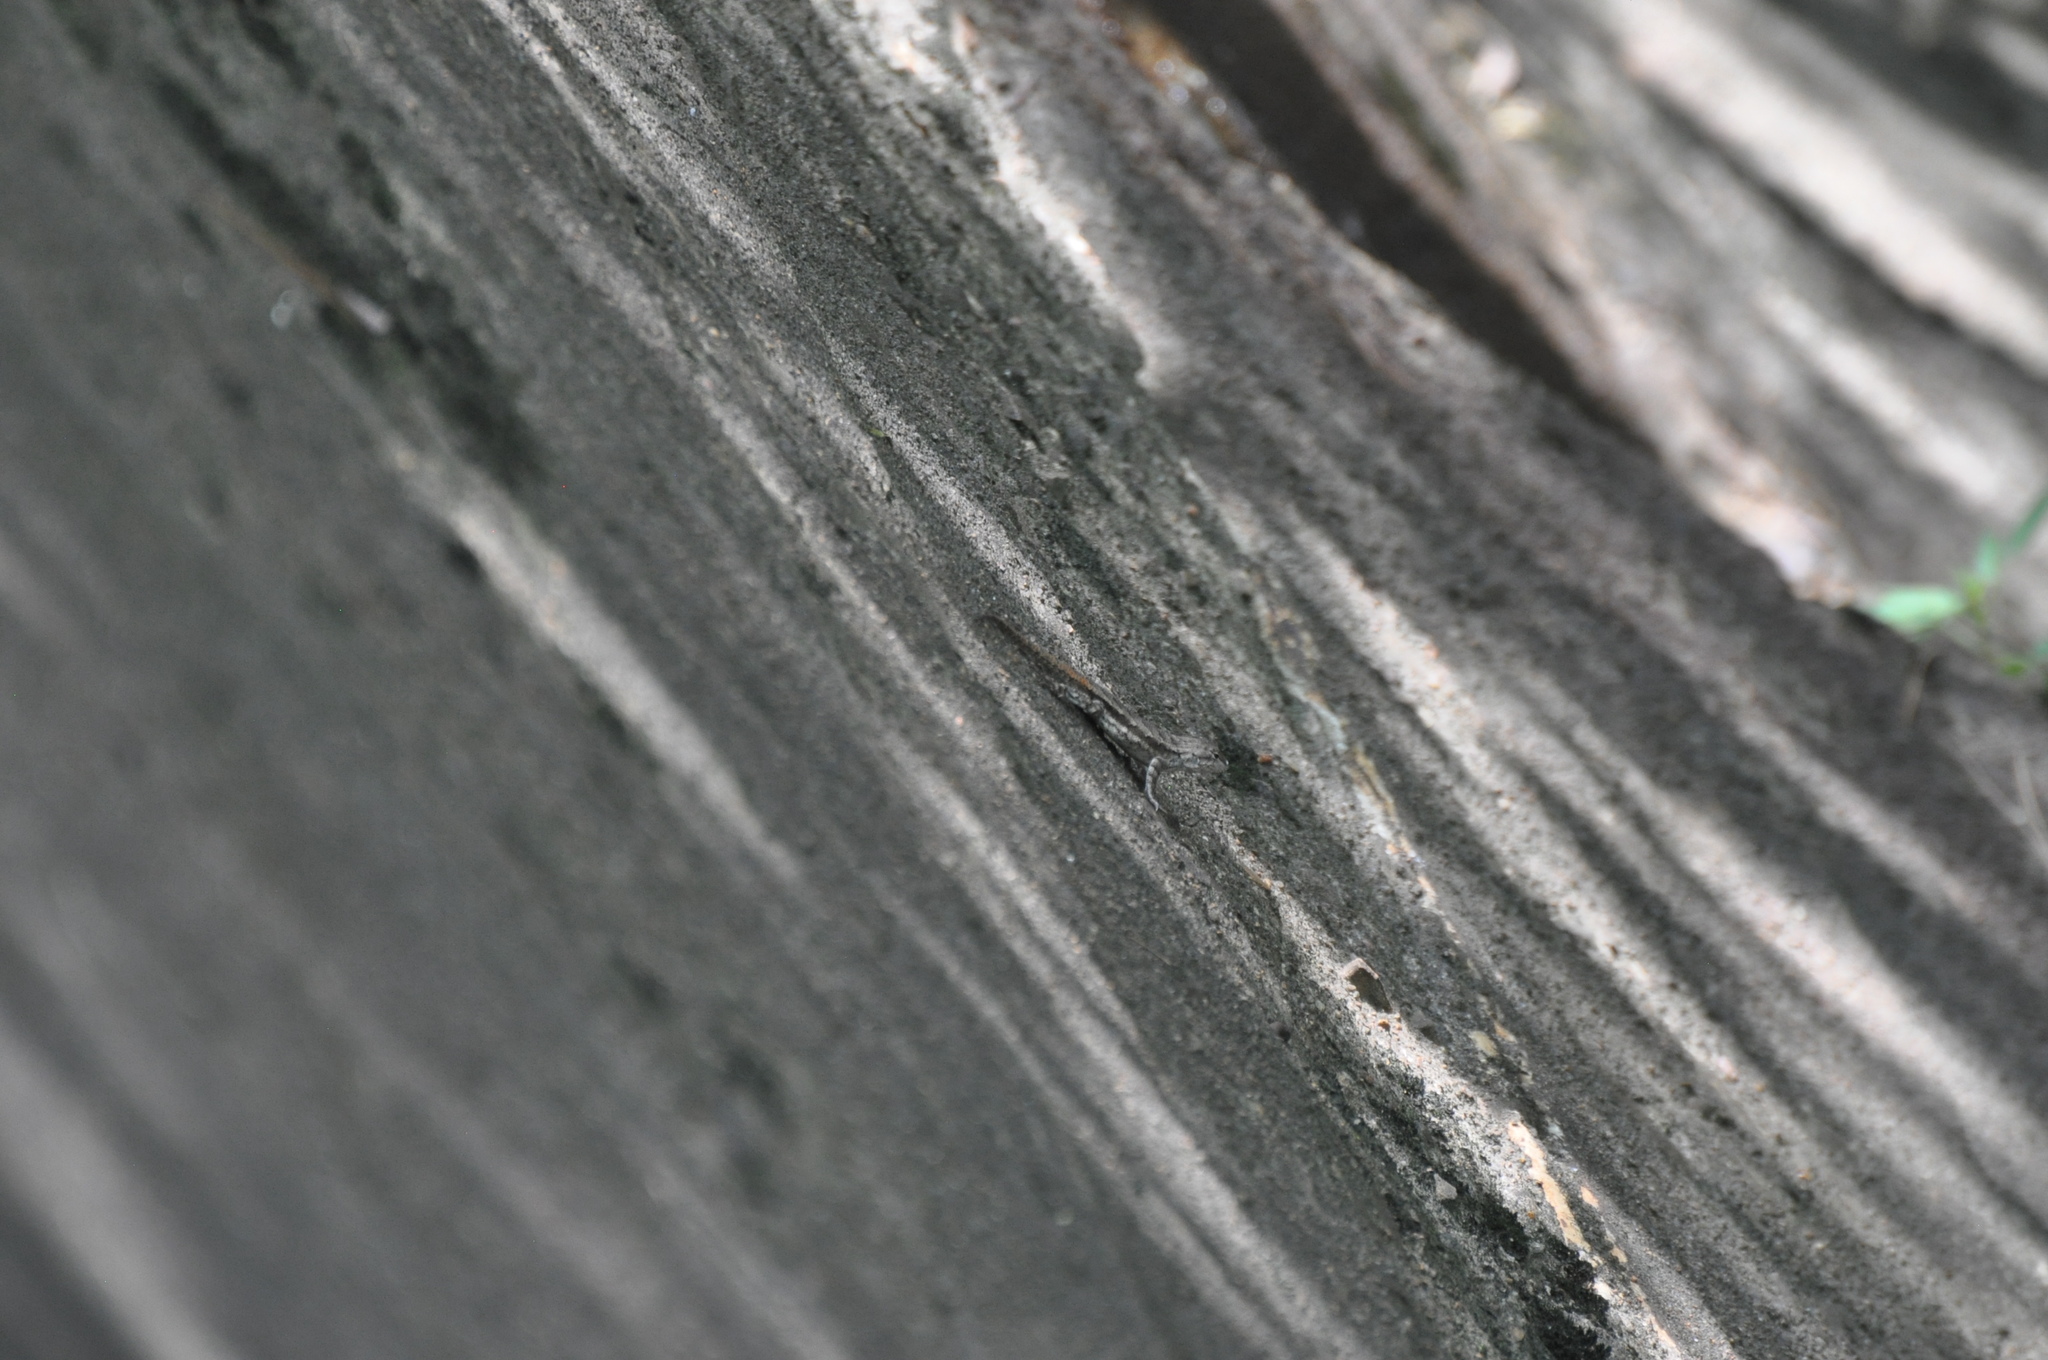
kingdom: Animalia
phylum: Chordata
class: Squamata
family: Phrynosomatidae
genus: Sceloporus
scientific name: Sceloporus consobrinus
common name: Southern prairie lizard
